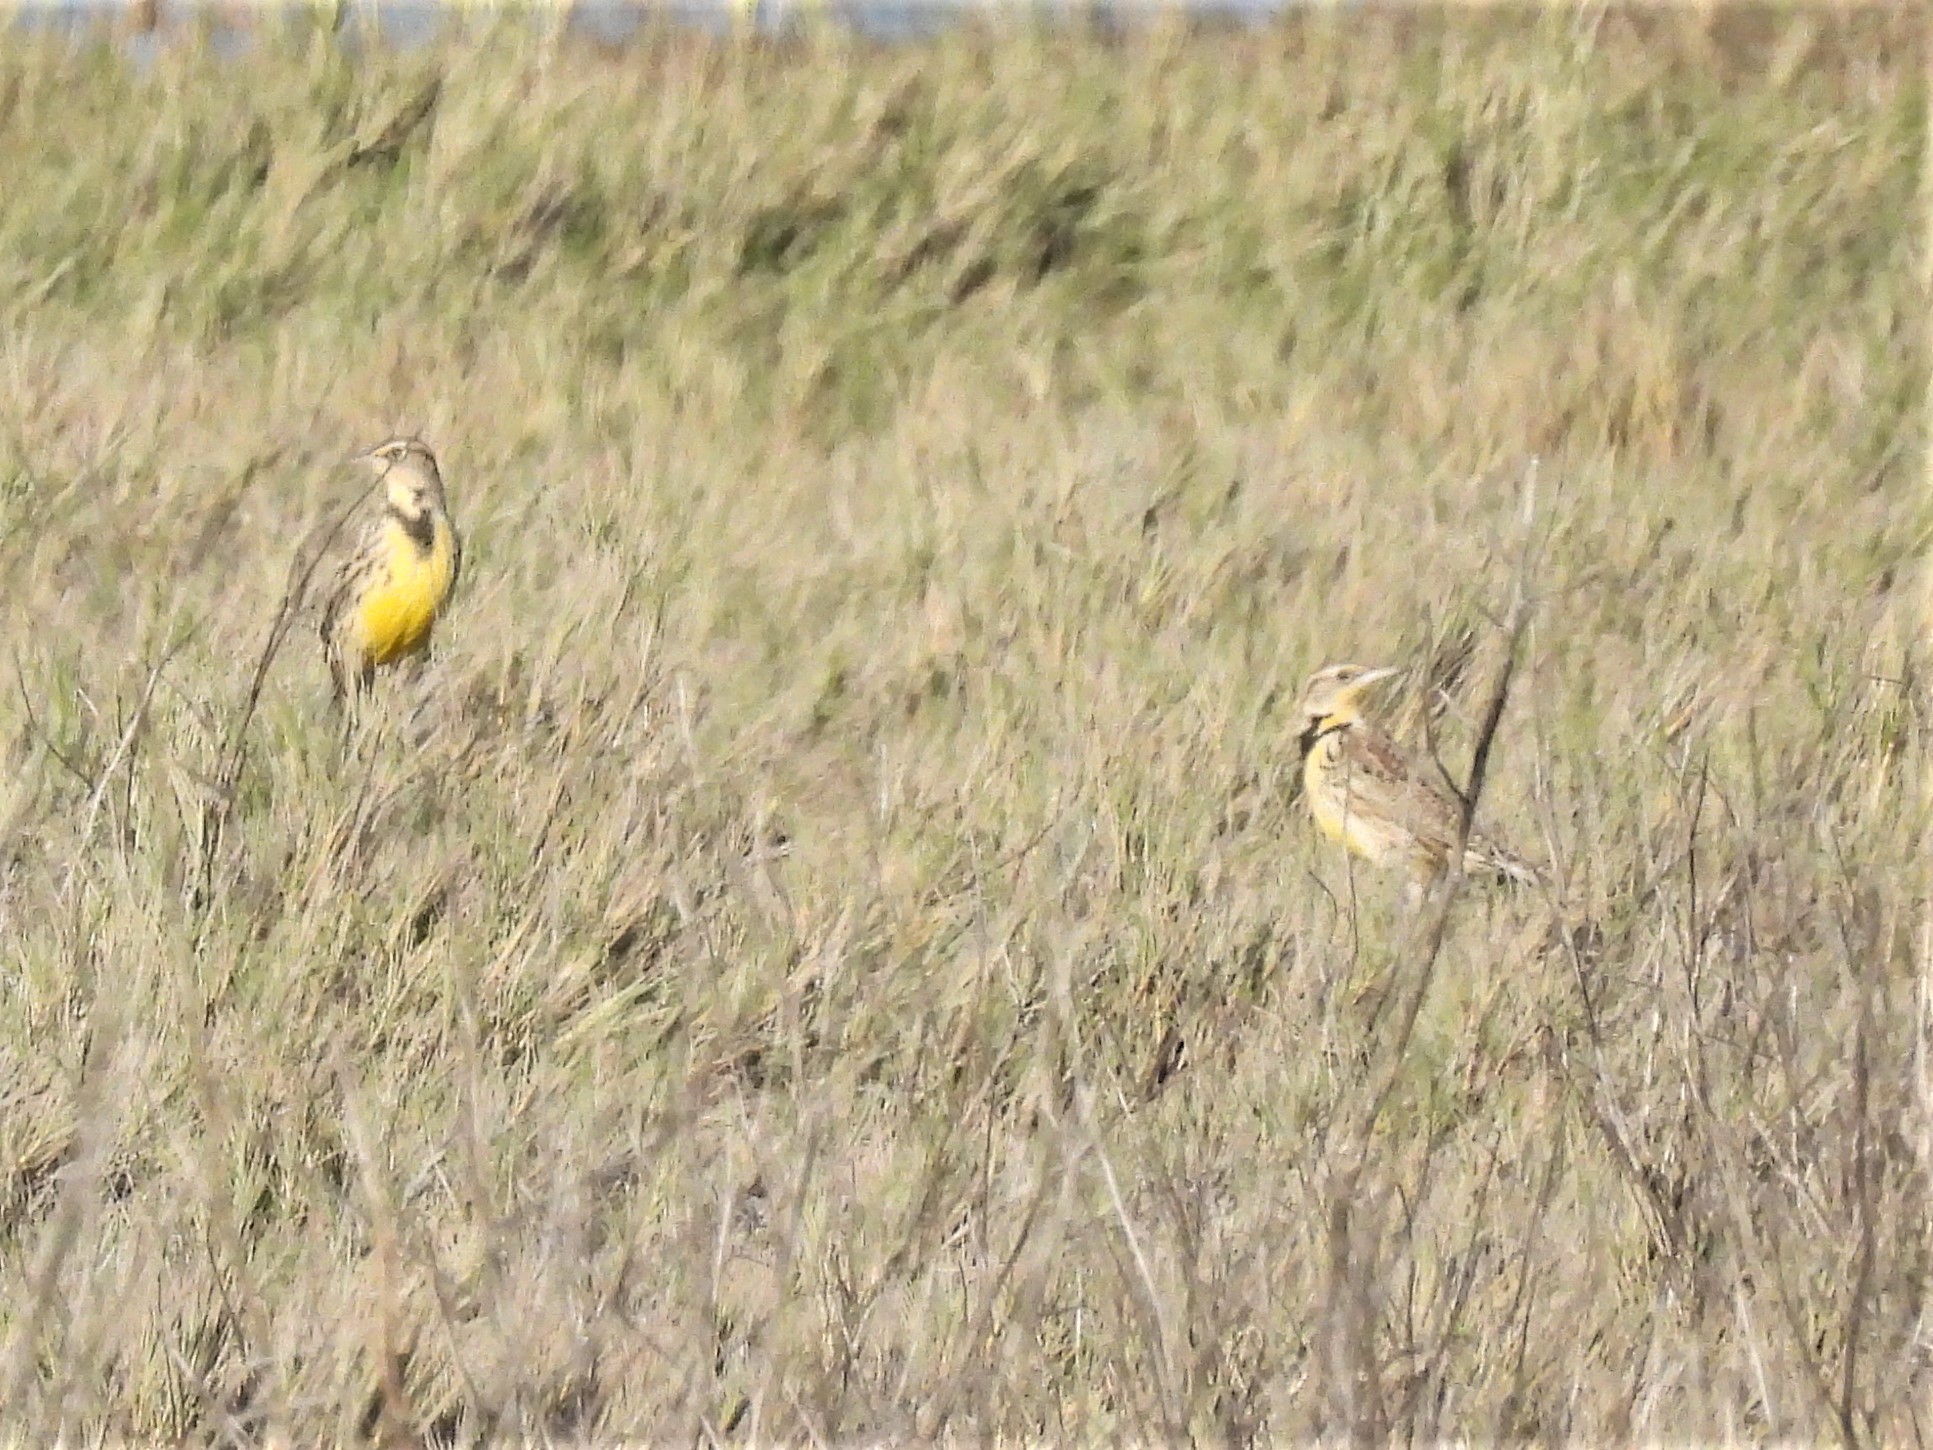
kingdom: Animalia
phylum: Chordata
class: Aves
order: Passeriformes
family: Icteridae
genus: Sturnella
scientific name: Sturnella neglecta
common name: Western meadowlark
